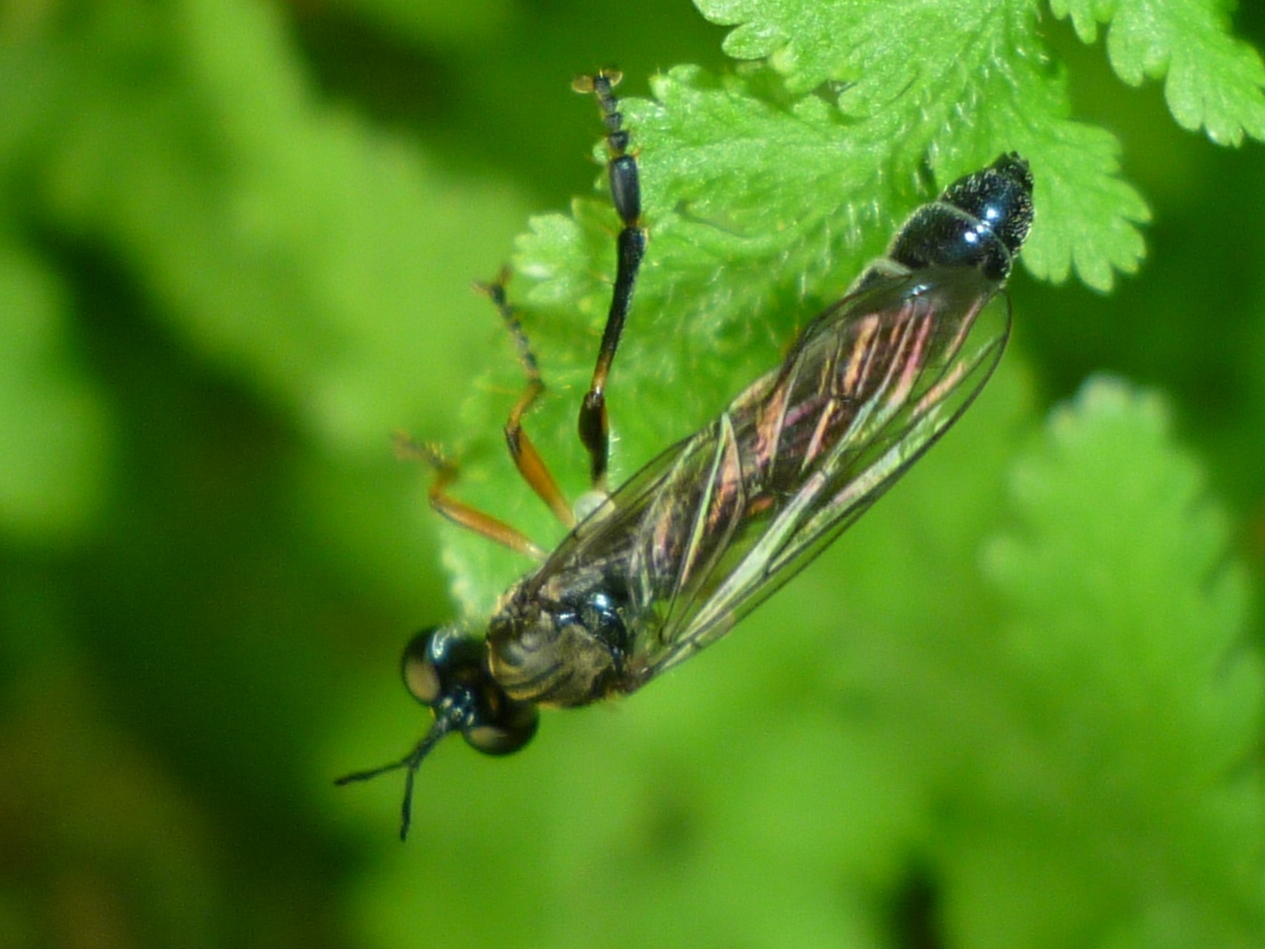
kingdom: Animalia
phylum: Arthropoda
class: Insecta
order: Diptera
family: Asilidae
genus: Dioctria
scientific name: Dioctria hyalipennis
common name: Stripe-legged robberfly
